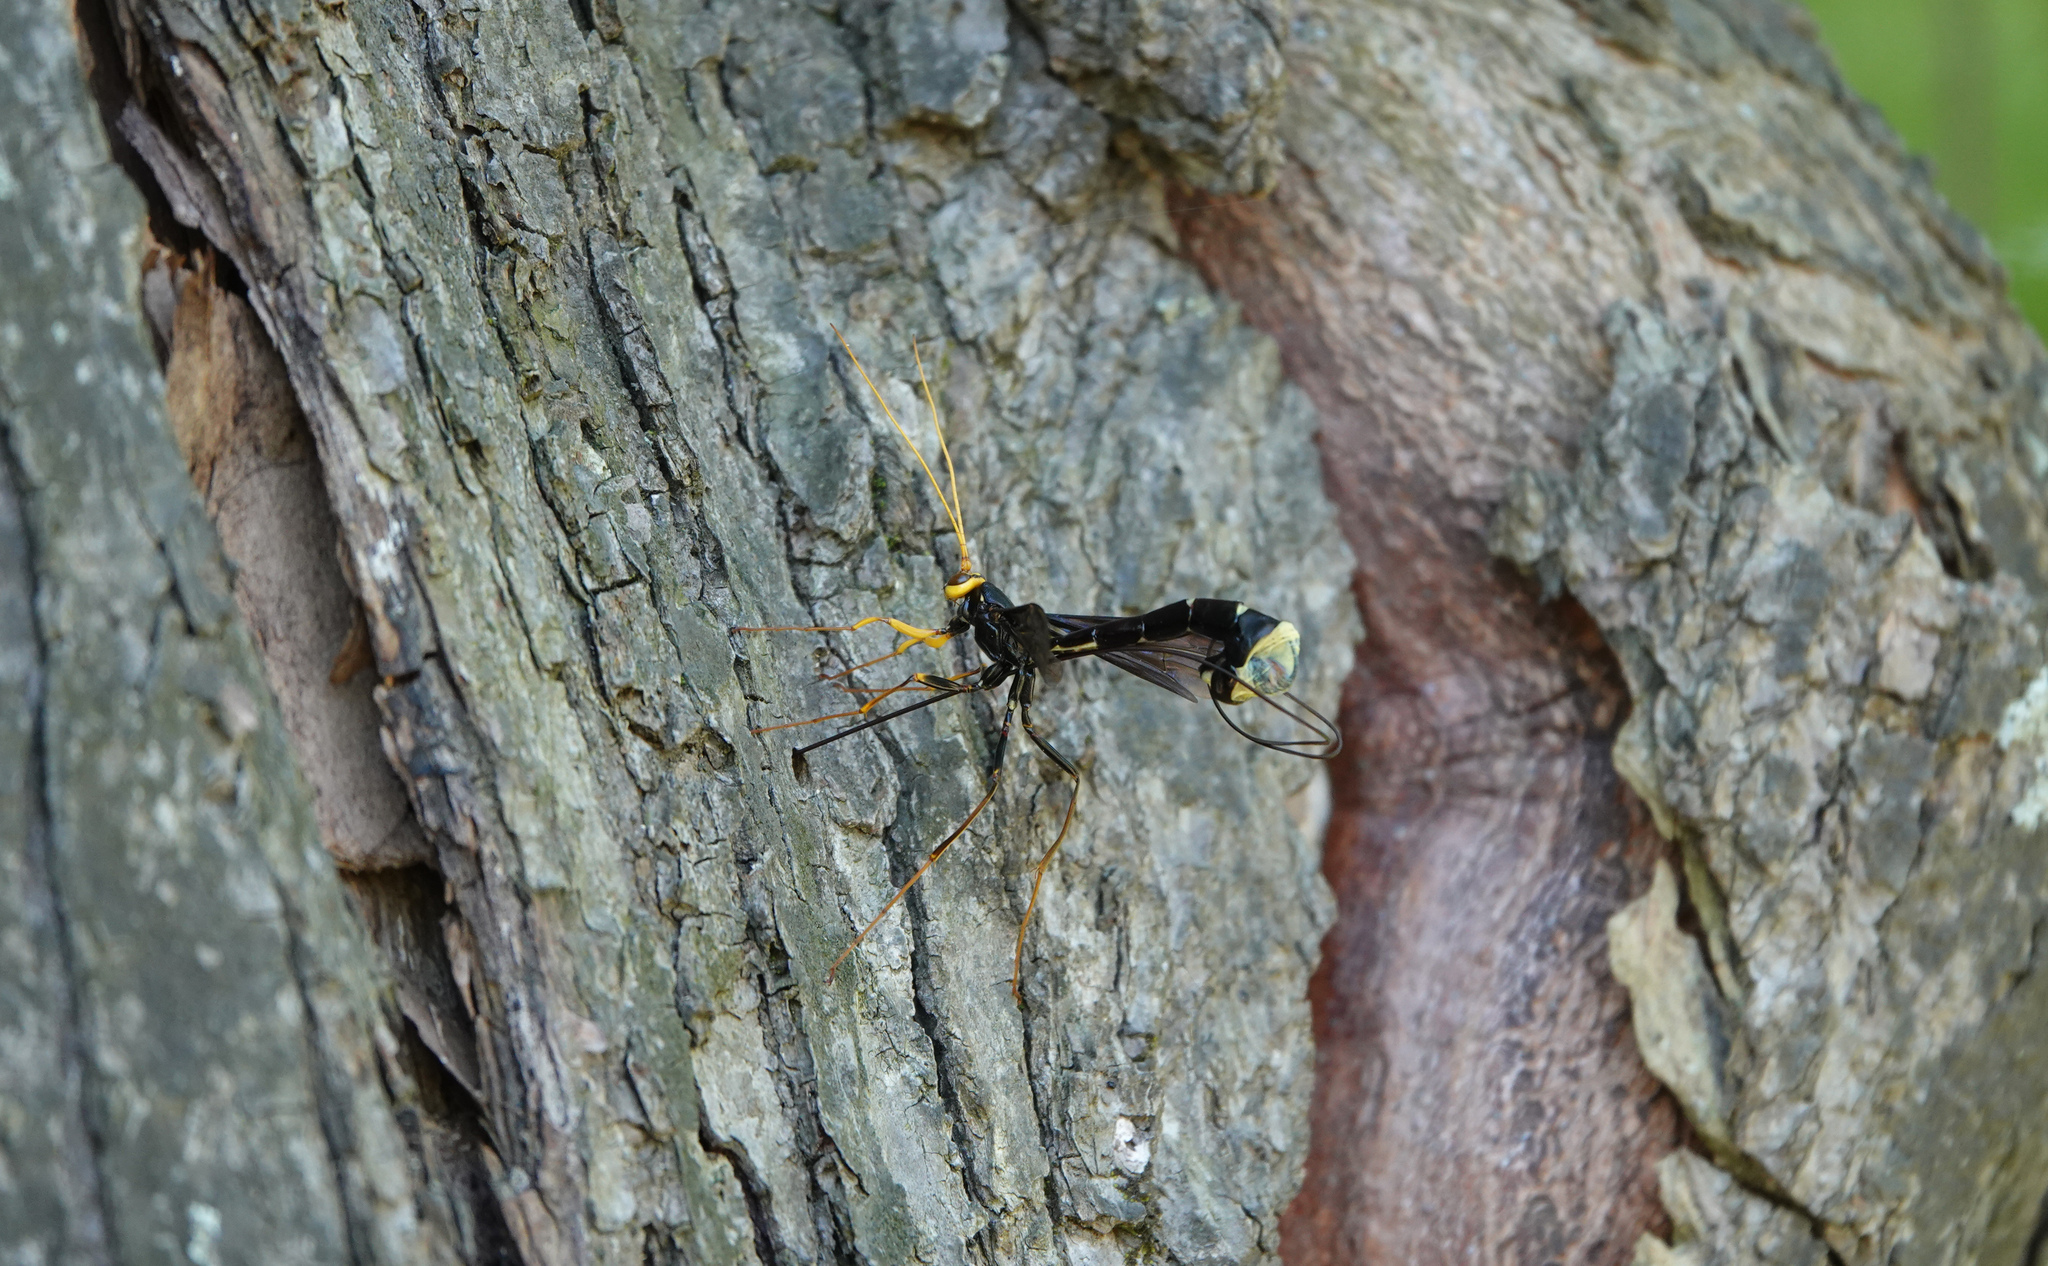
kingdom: Animalia
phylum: Arthropoda
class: Insecta
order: Hymenoptera
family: Ichneumonidae
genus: Megarhyssa
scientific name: Megarhyssa atrata
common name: Black giant ichneumonid wasp
